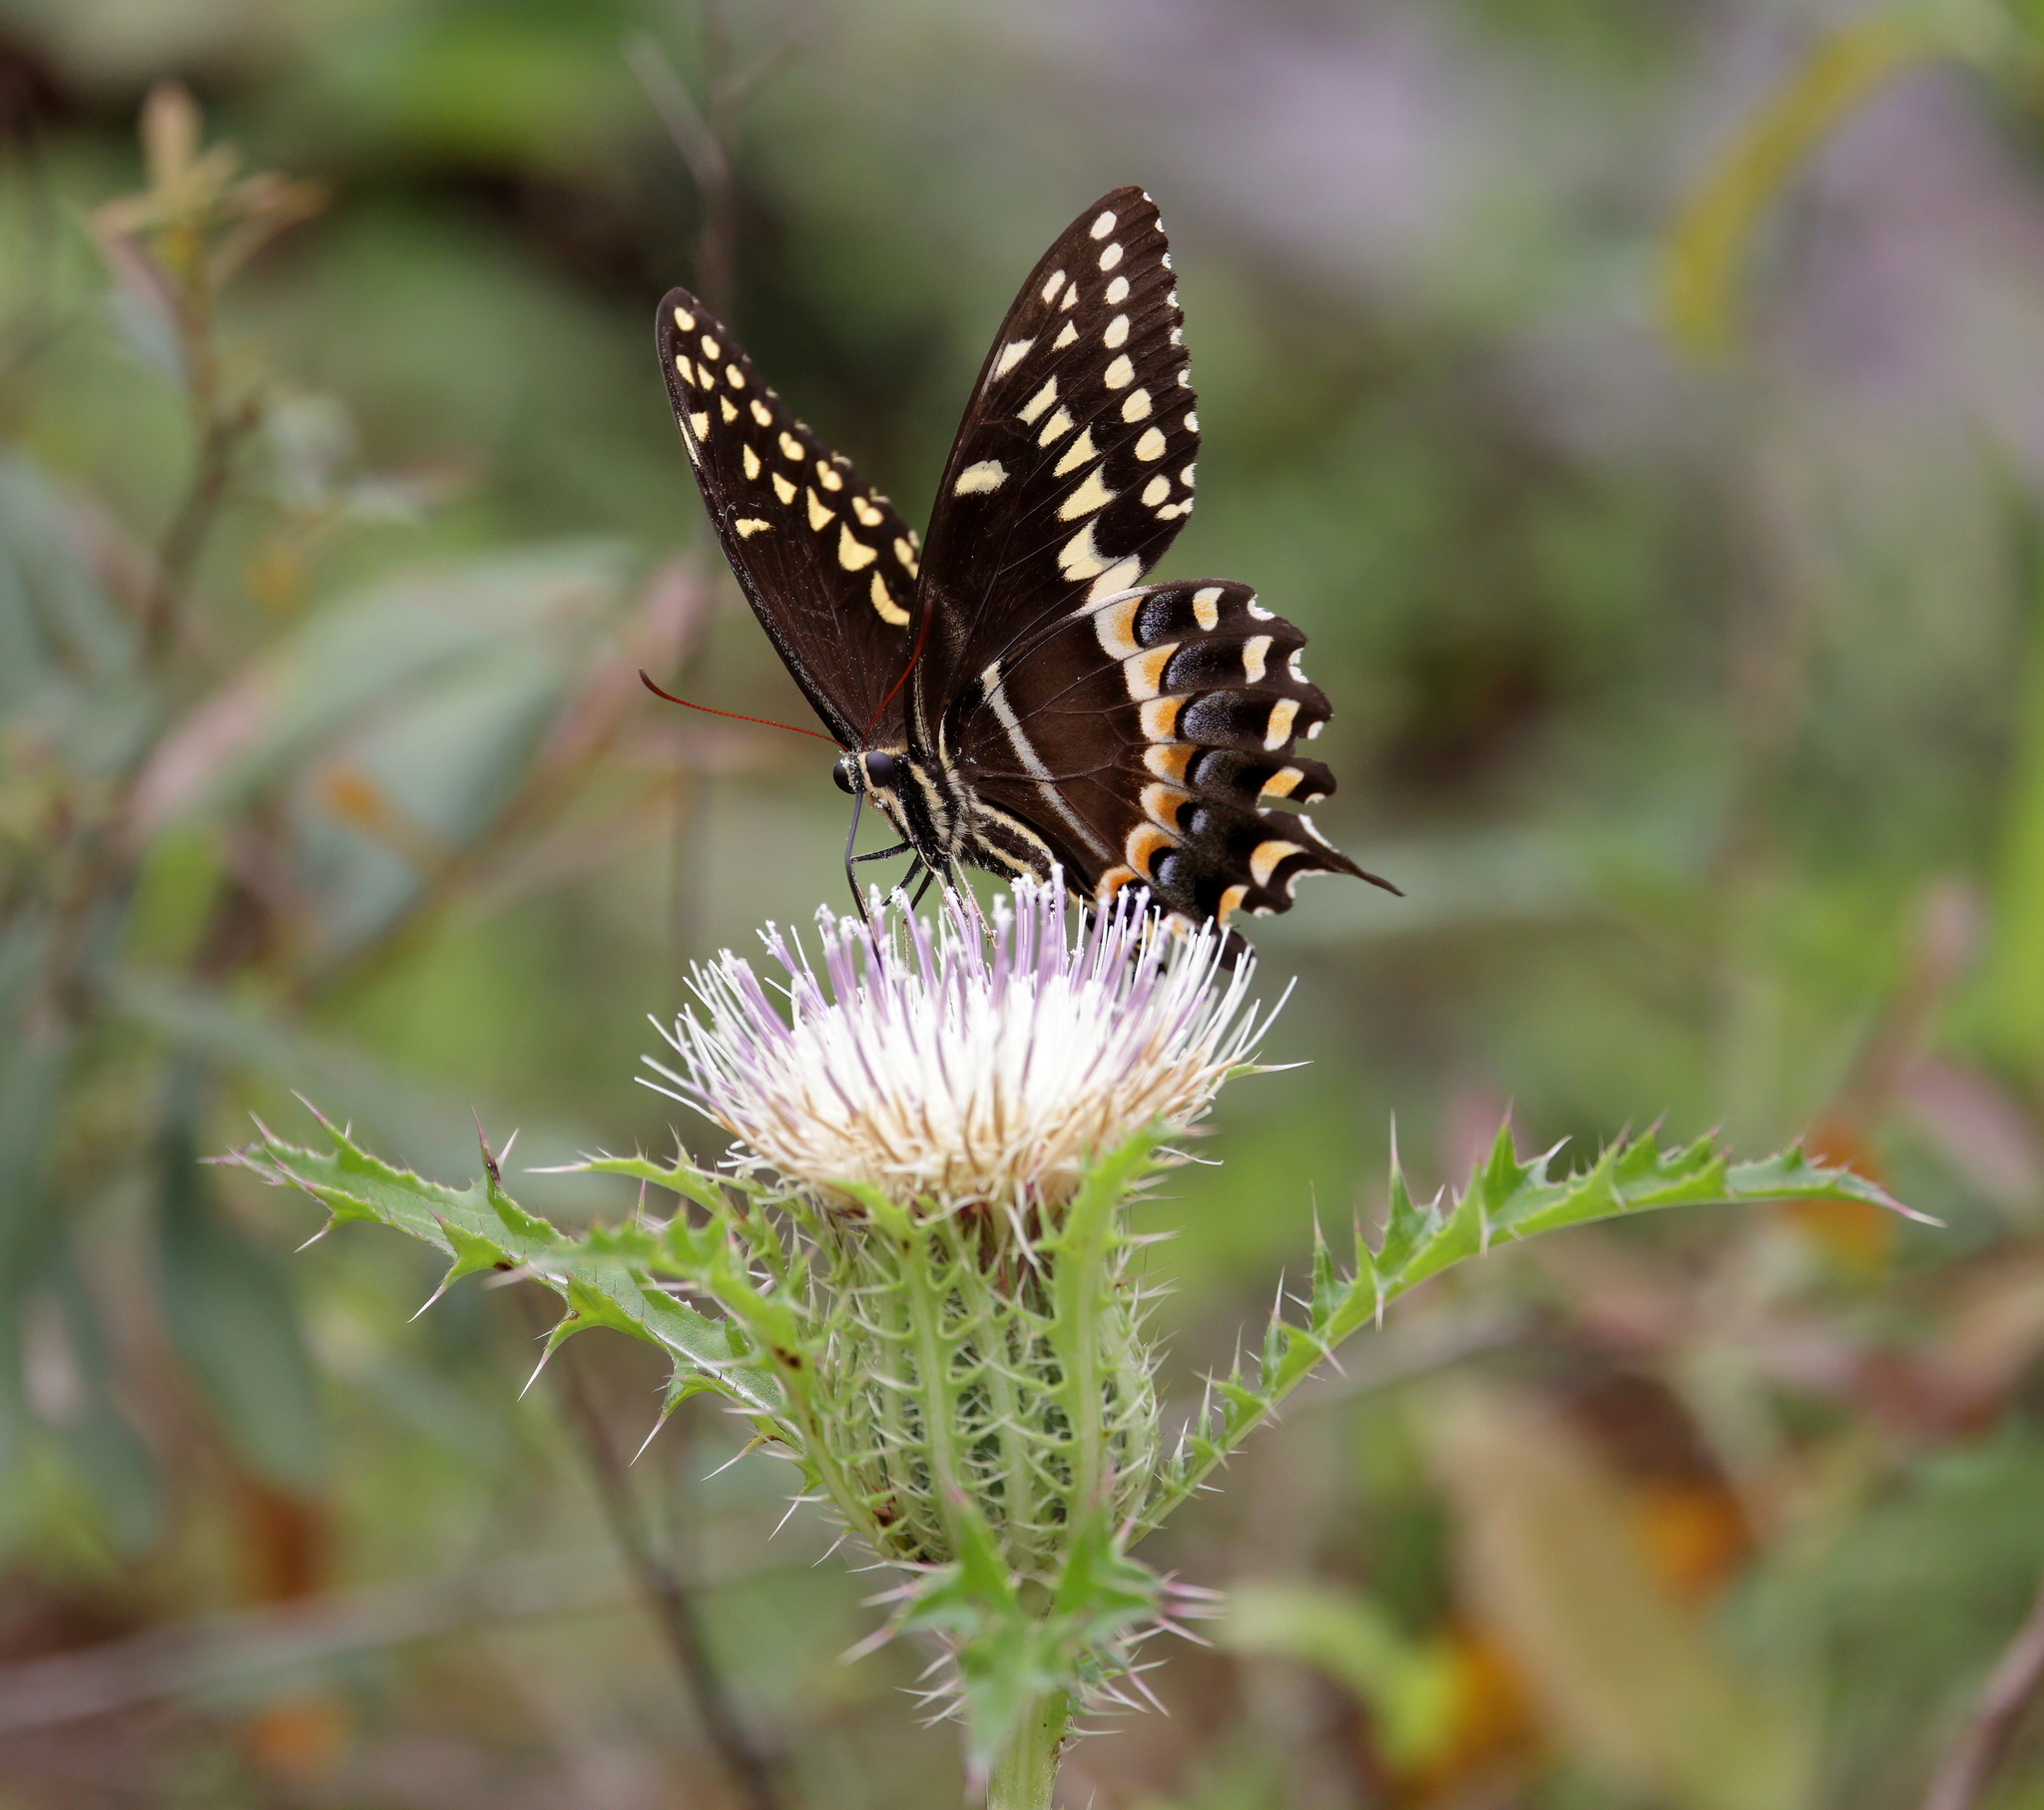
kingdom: Animalia
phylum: Arthropoda
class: Insecta
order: Lepidoptera
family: Papilionidae
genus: Papilio
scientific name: Papilio palamedes
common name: Palamedes swallowtail
